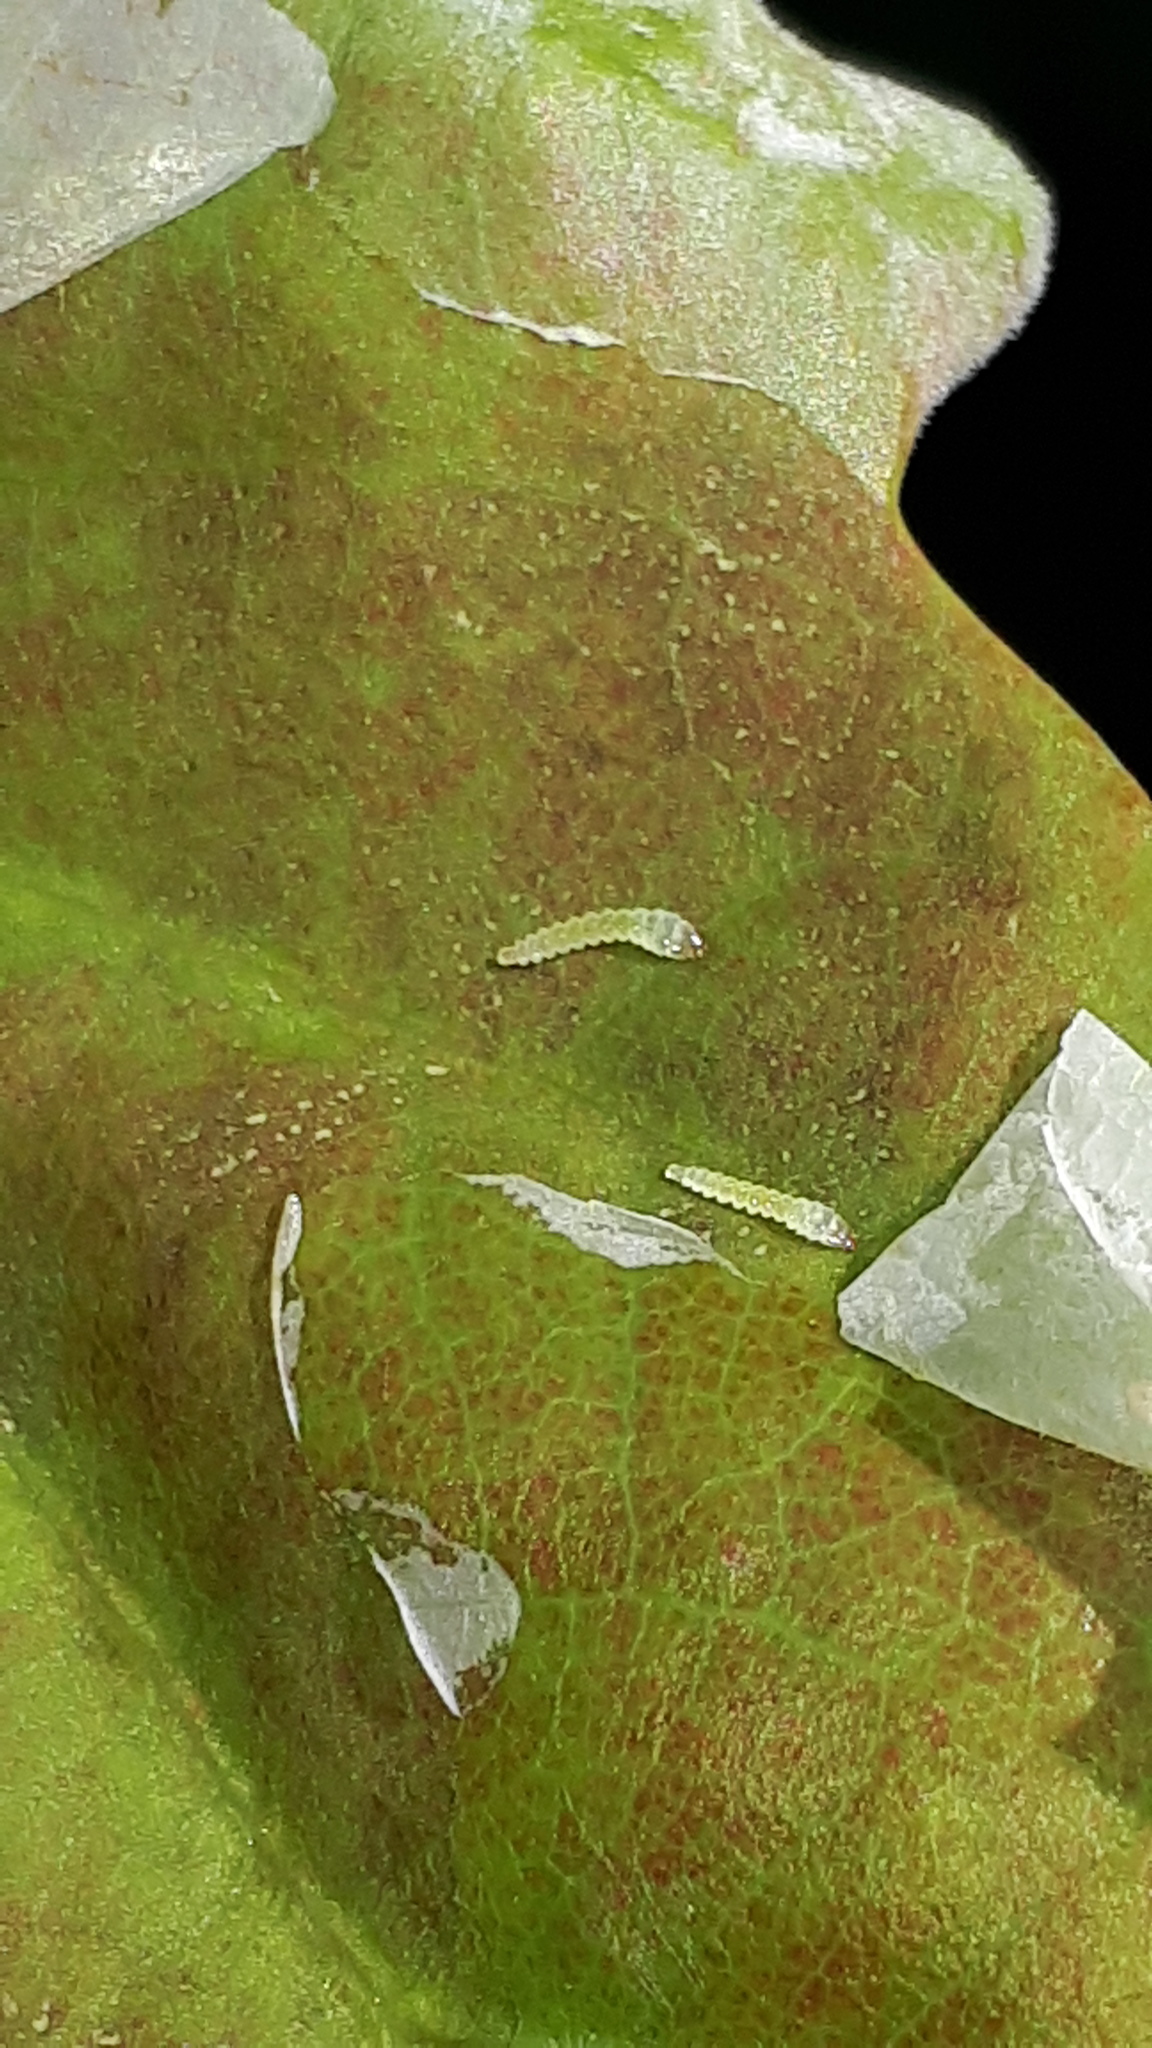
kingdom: Animalia
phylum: Arthropoda
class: Insecta
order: Lepidoptera
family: Gracillariidae
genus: Acrocercops
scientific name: Acrocercops brongniardella
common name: Brown oak slender
